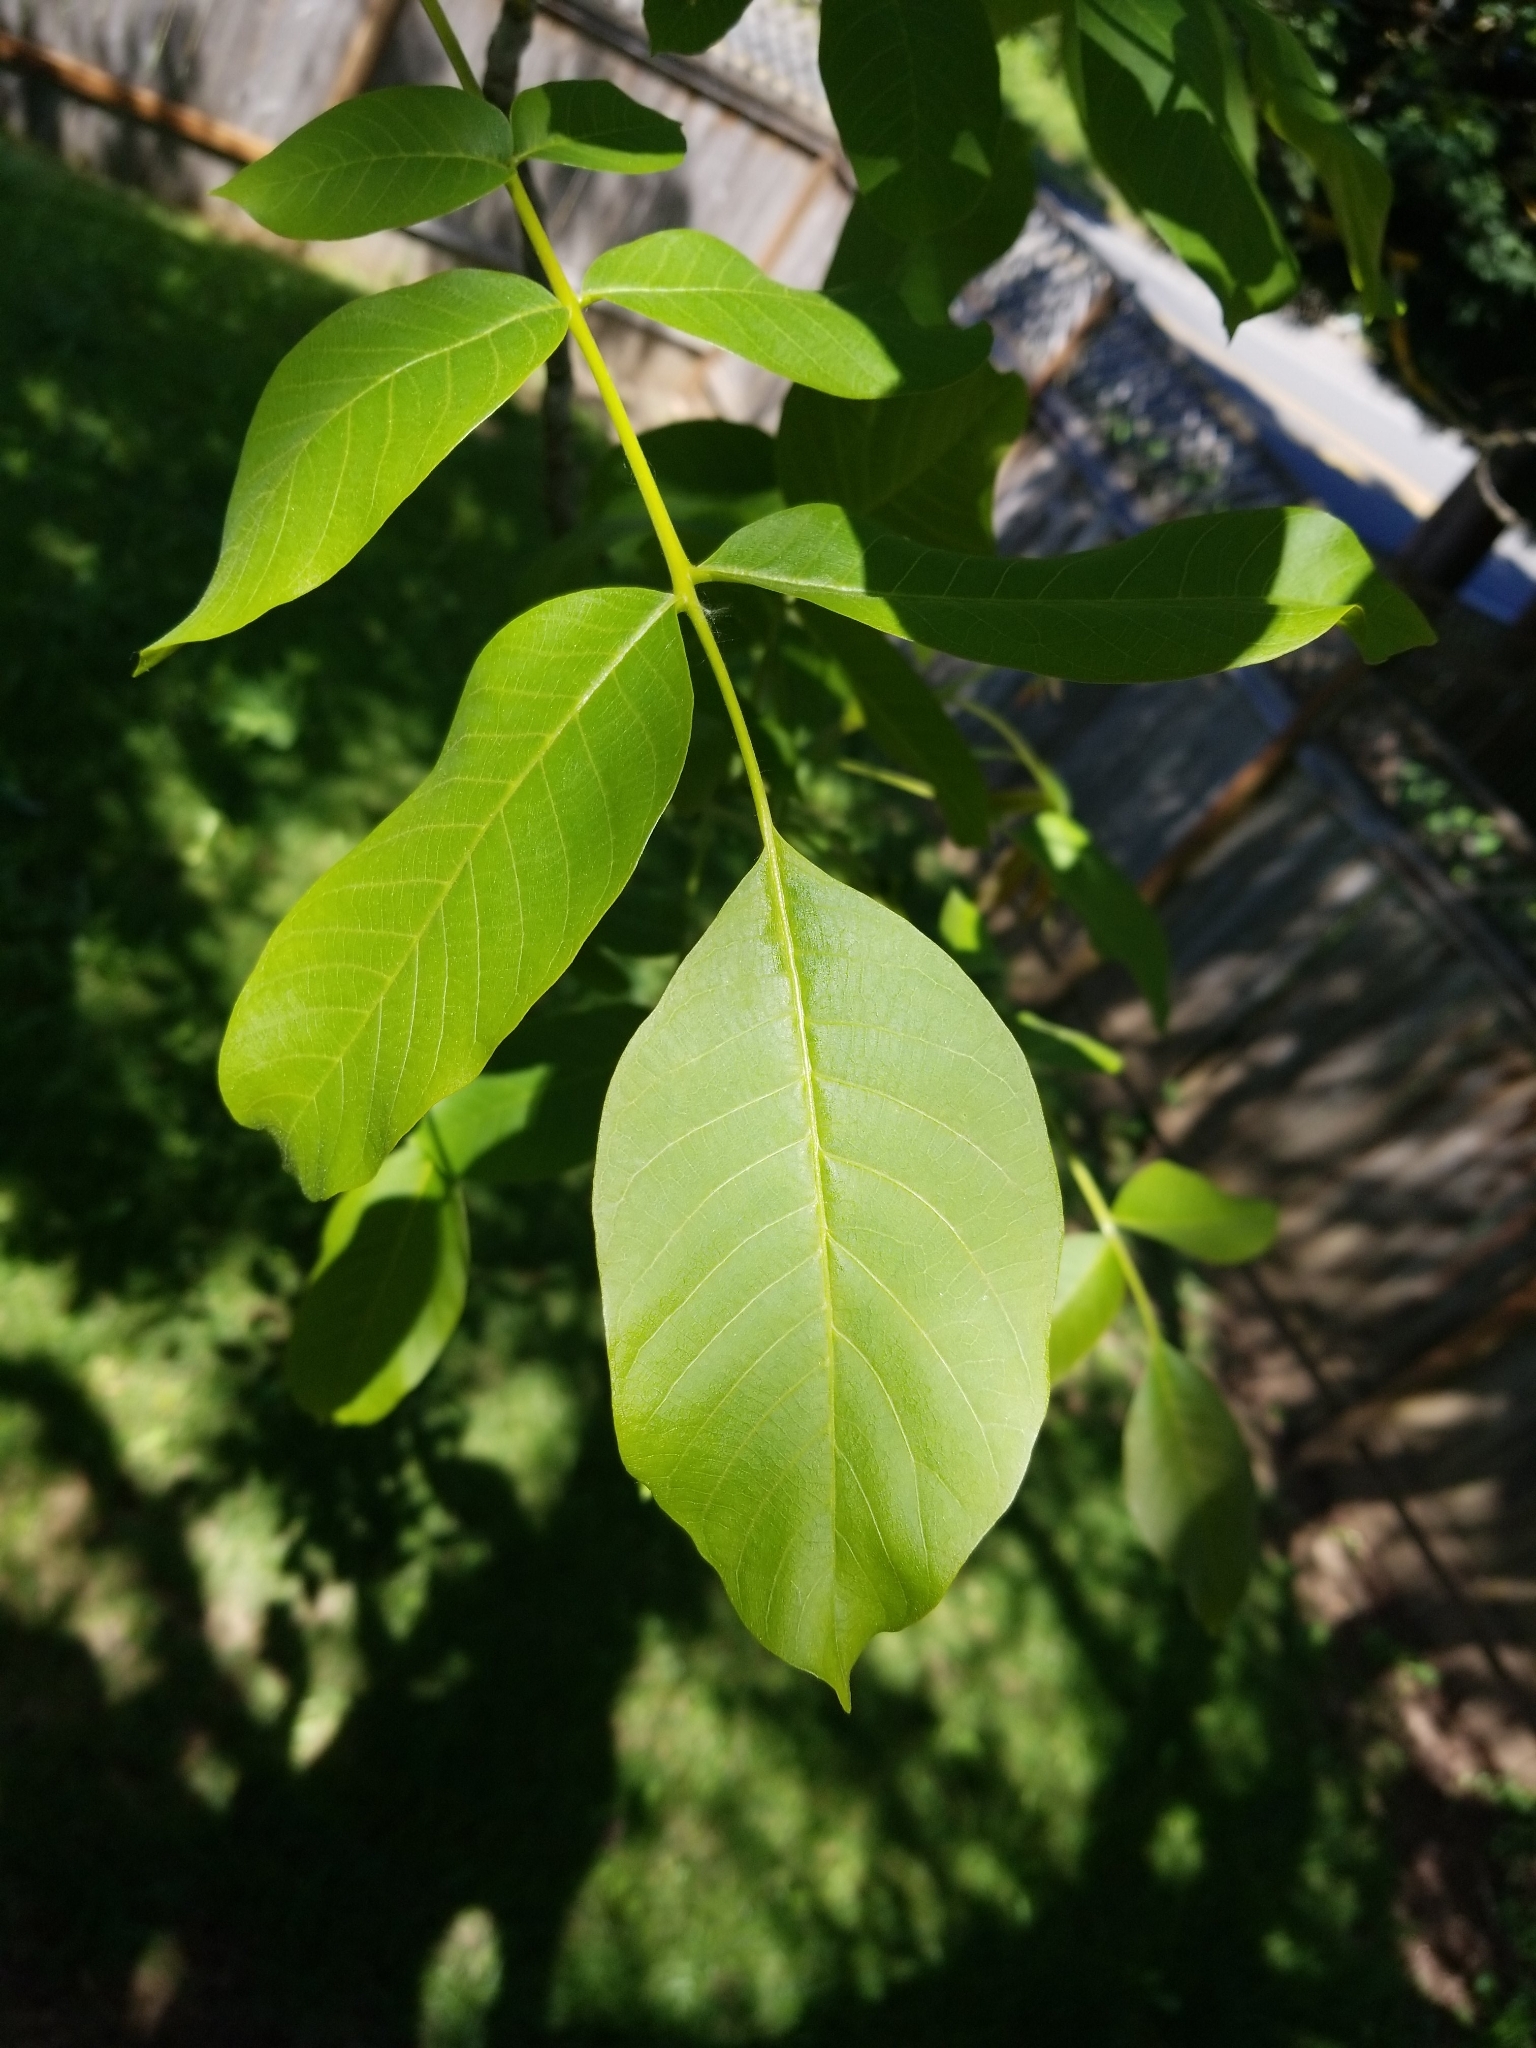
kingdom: Plantae
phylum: Tracheophyta
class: Magnoliopsida
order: Fagales
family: Juglandaceae
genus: Juglans
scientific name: Juglans regia
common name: Walnut
